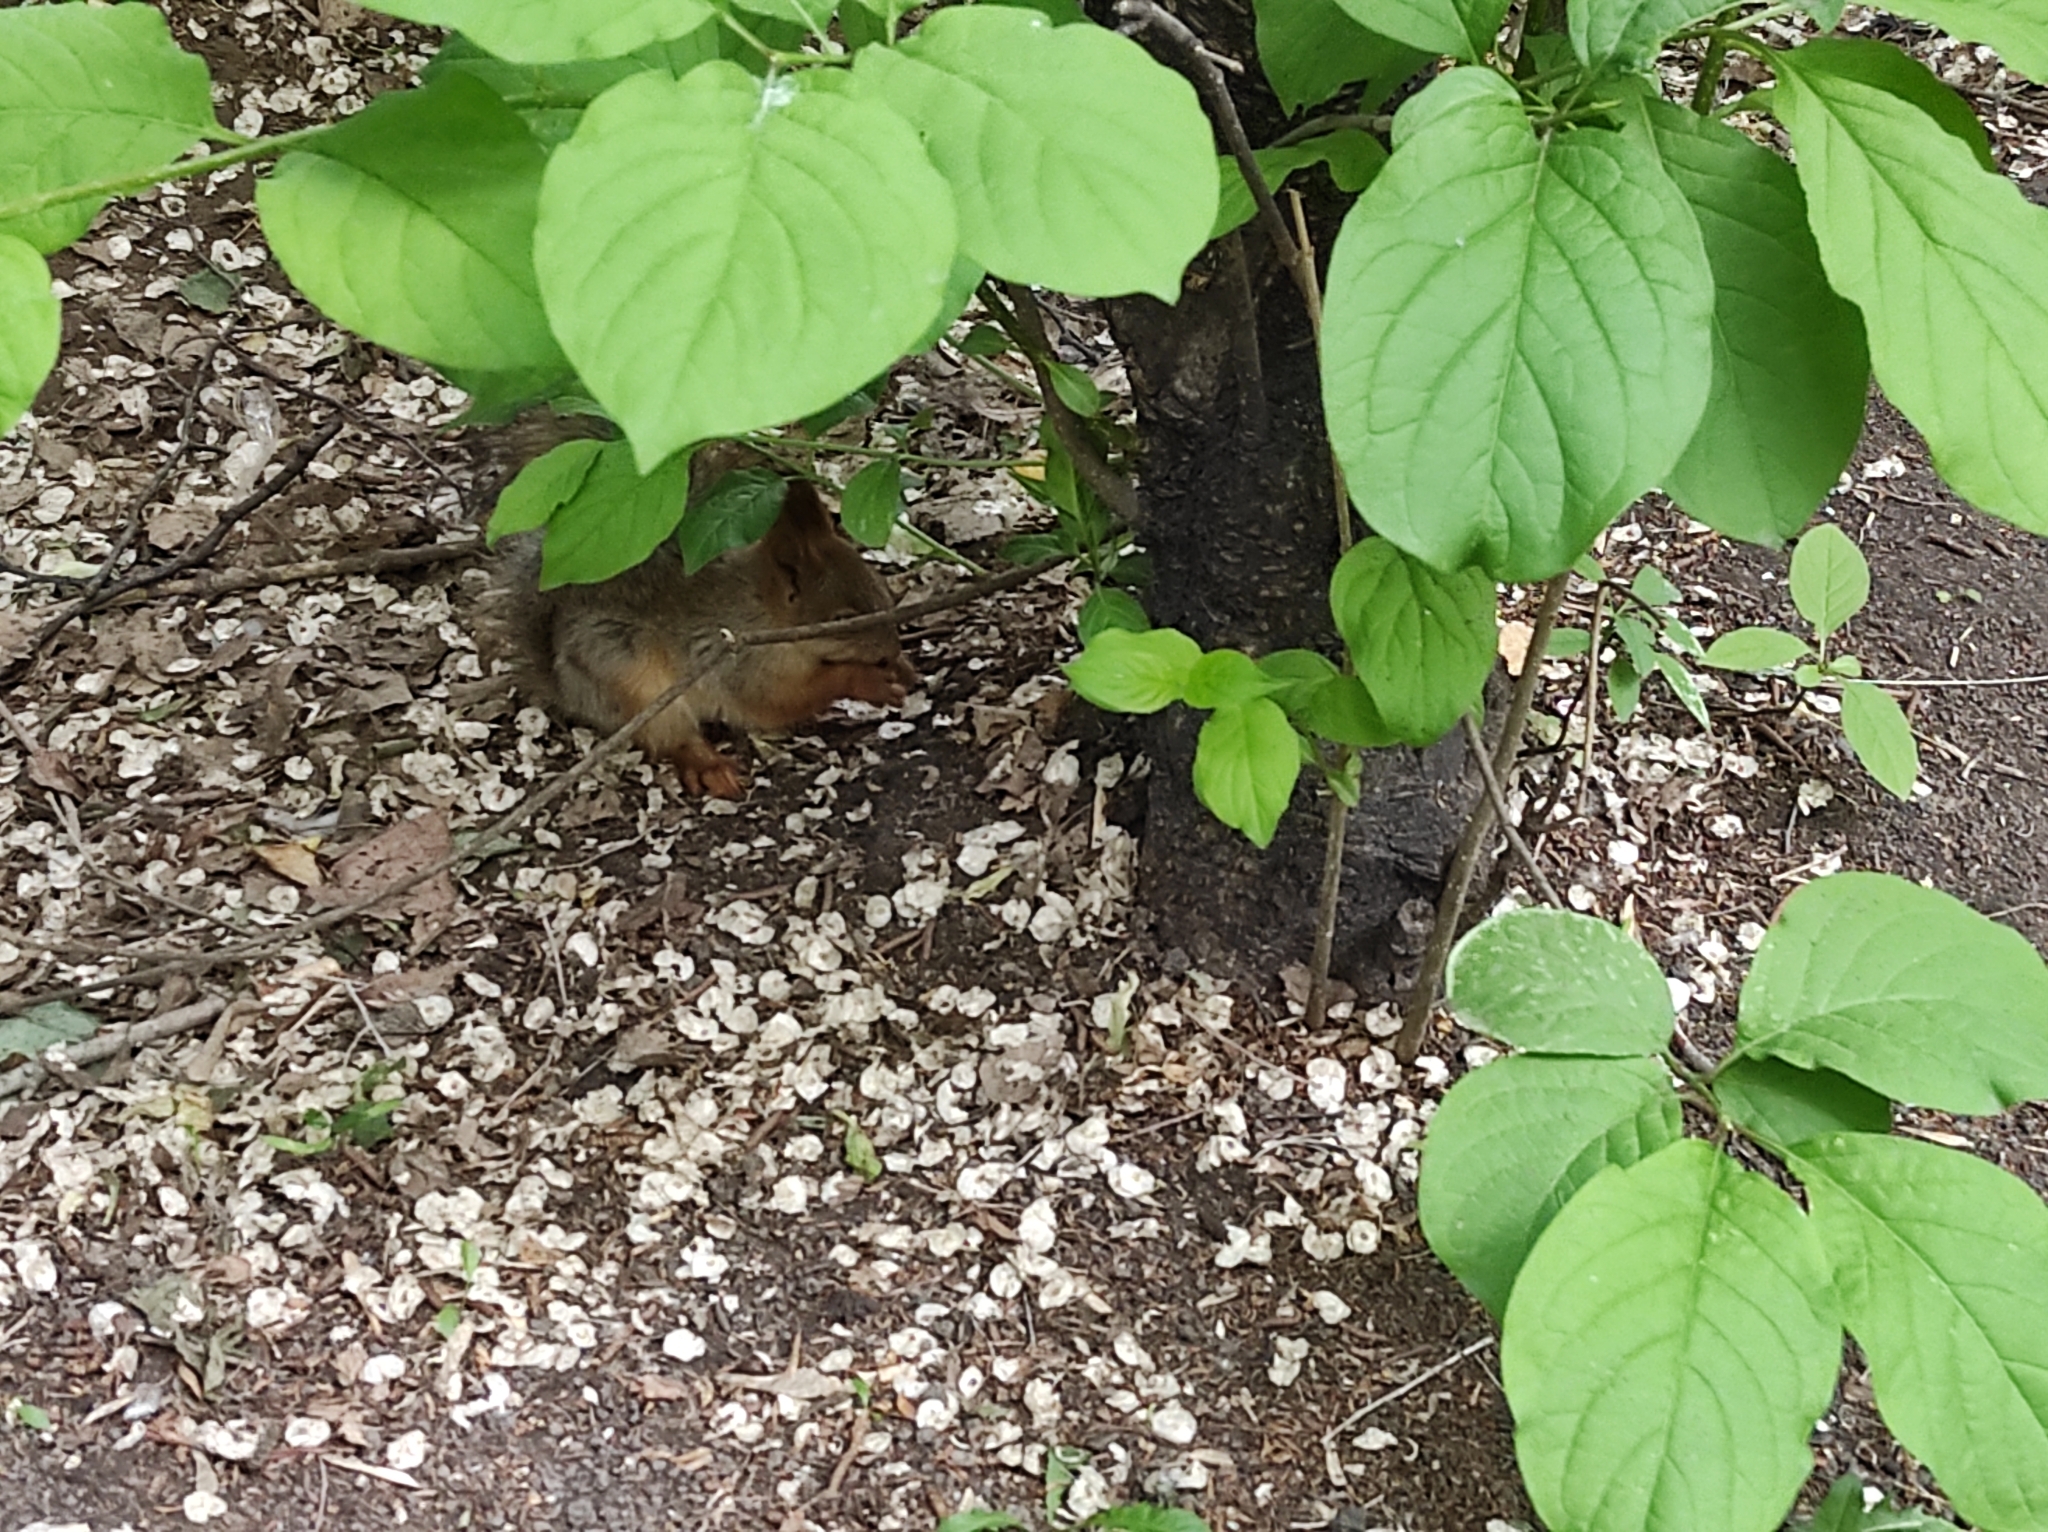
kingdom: Animalia
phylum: Chordata
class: Mammalia
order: Rodentia
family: Sciuridae
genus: Sciurus
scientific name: Sciurus vulgaris
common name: Eurasian red squirrel
